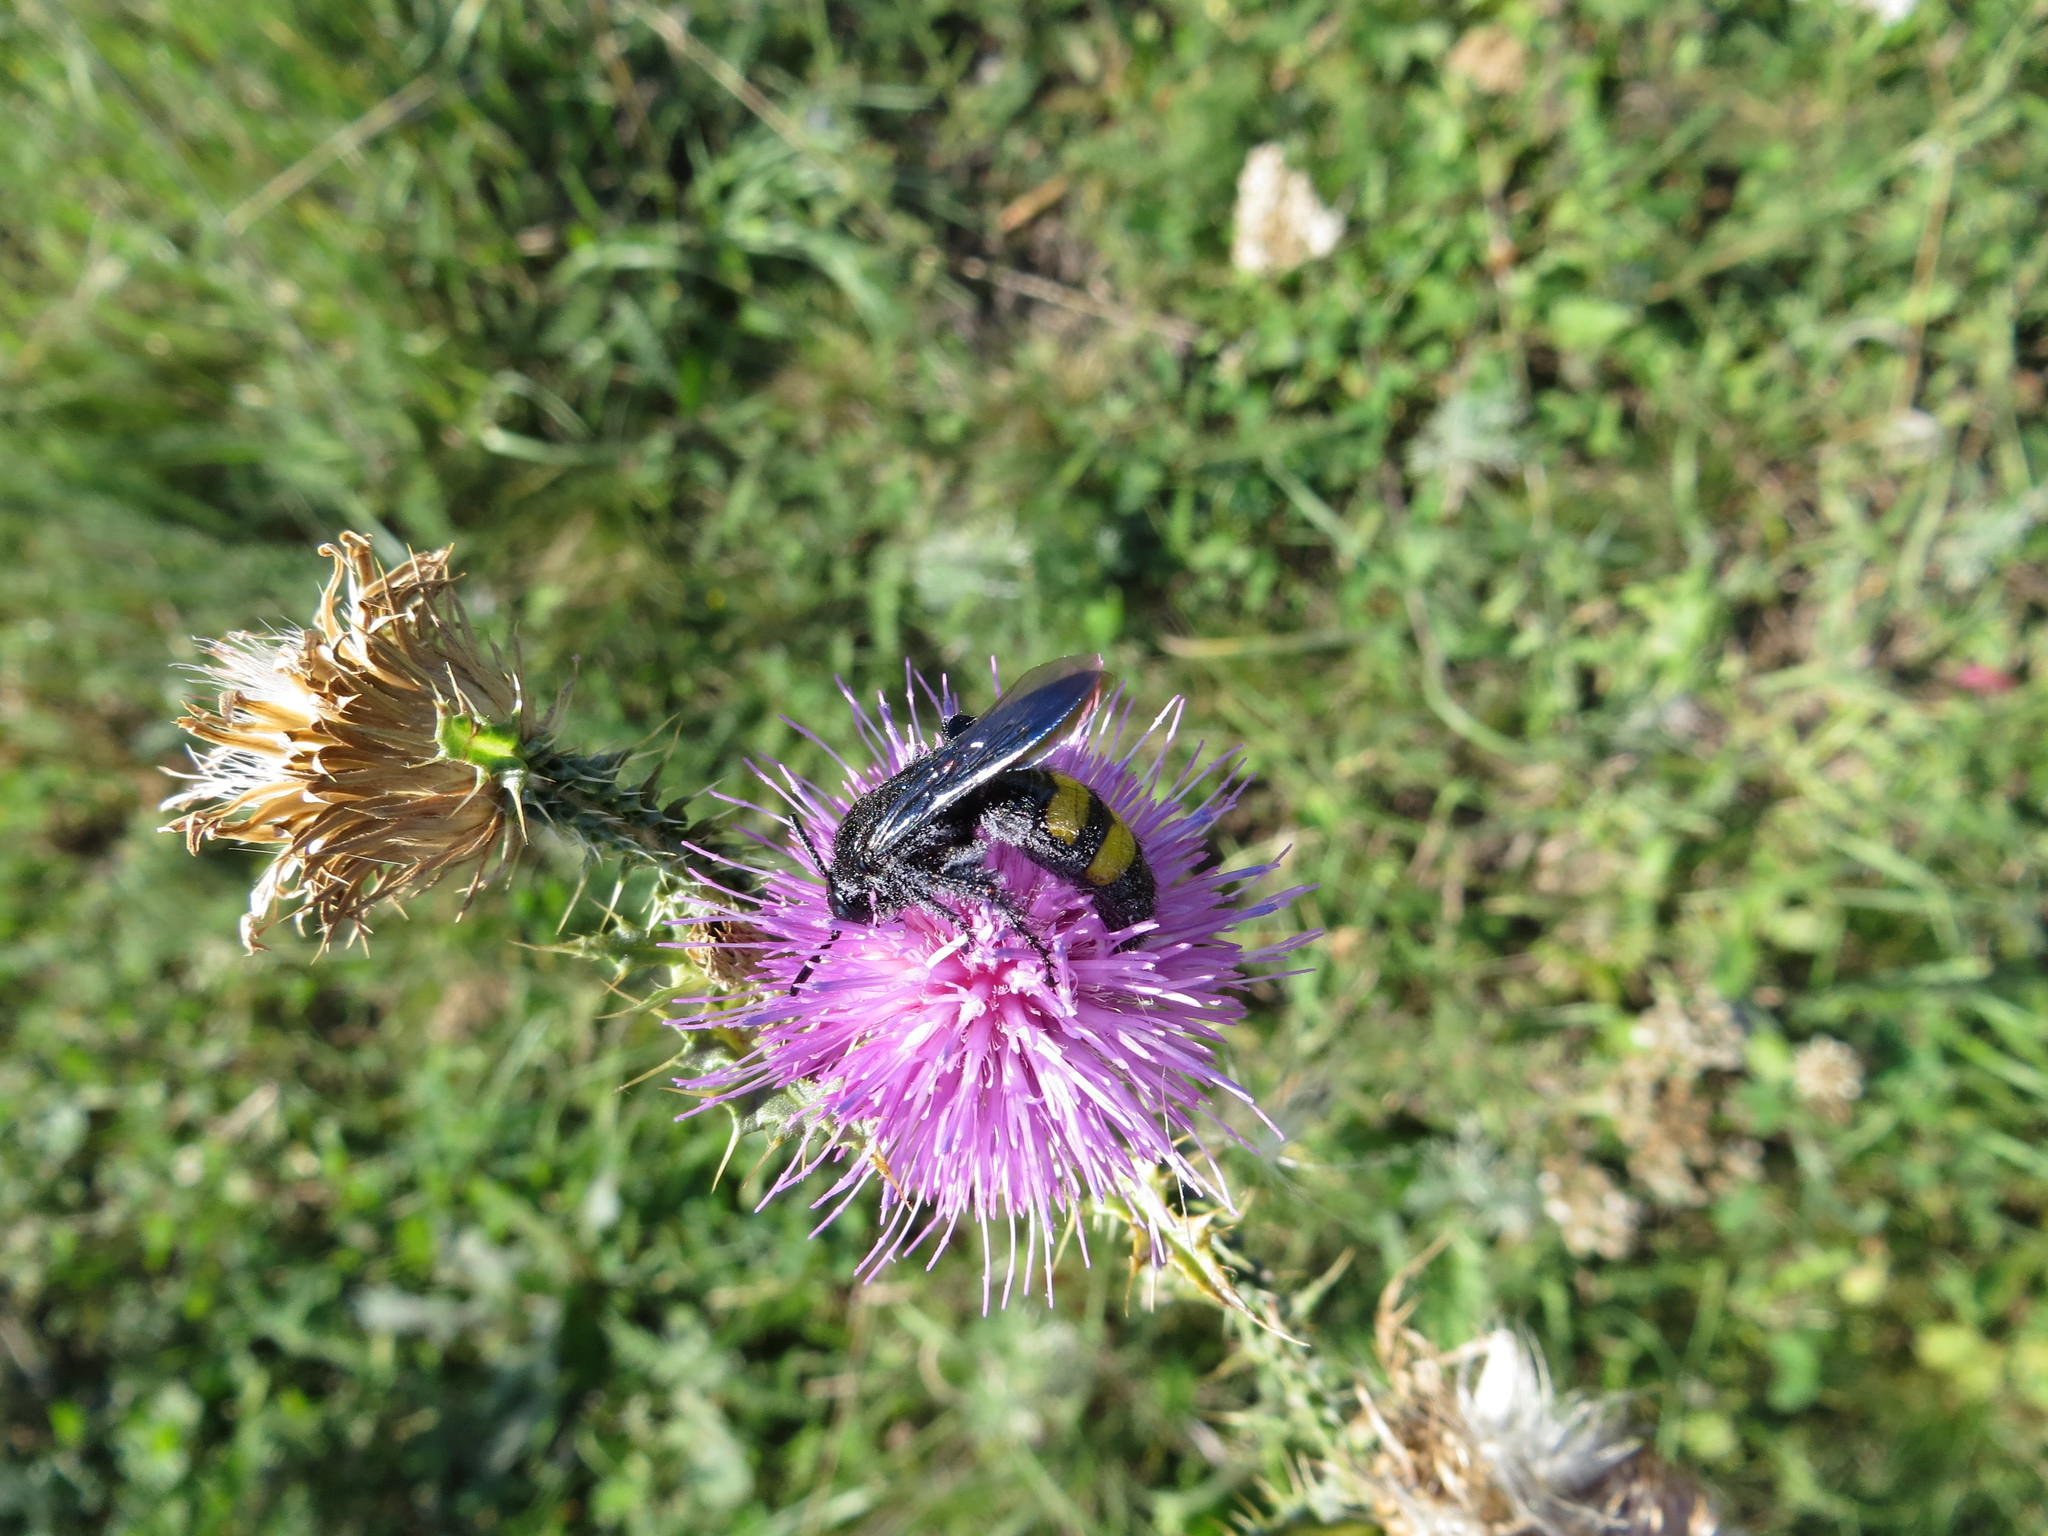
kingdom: Animalia
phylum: Arthropoda
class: Insecta
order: Hymenoptera
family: Scoliidae
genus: Scolia
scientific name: Scolia hirta
